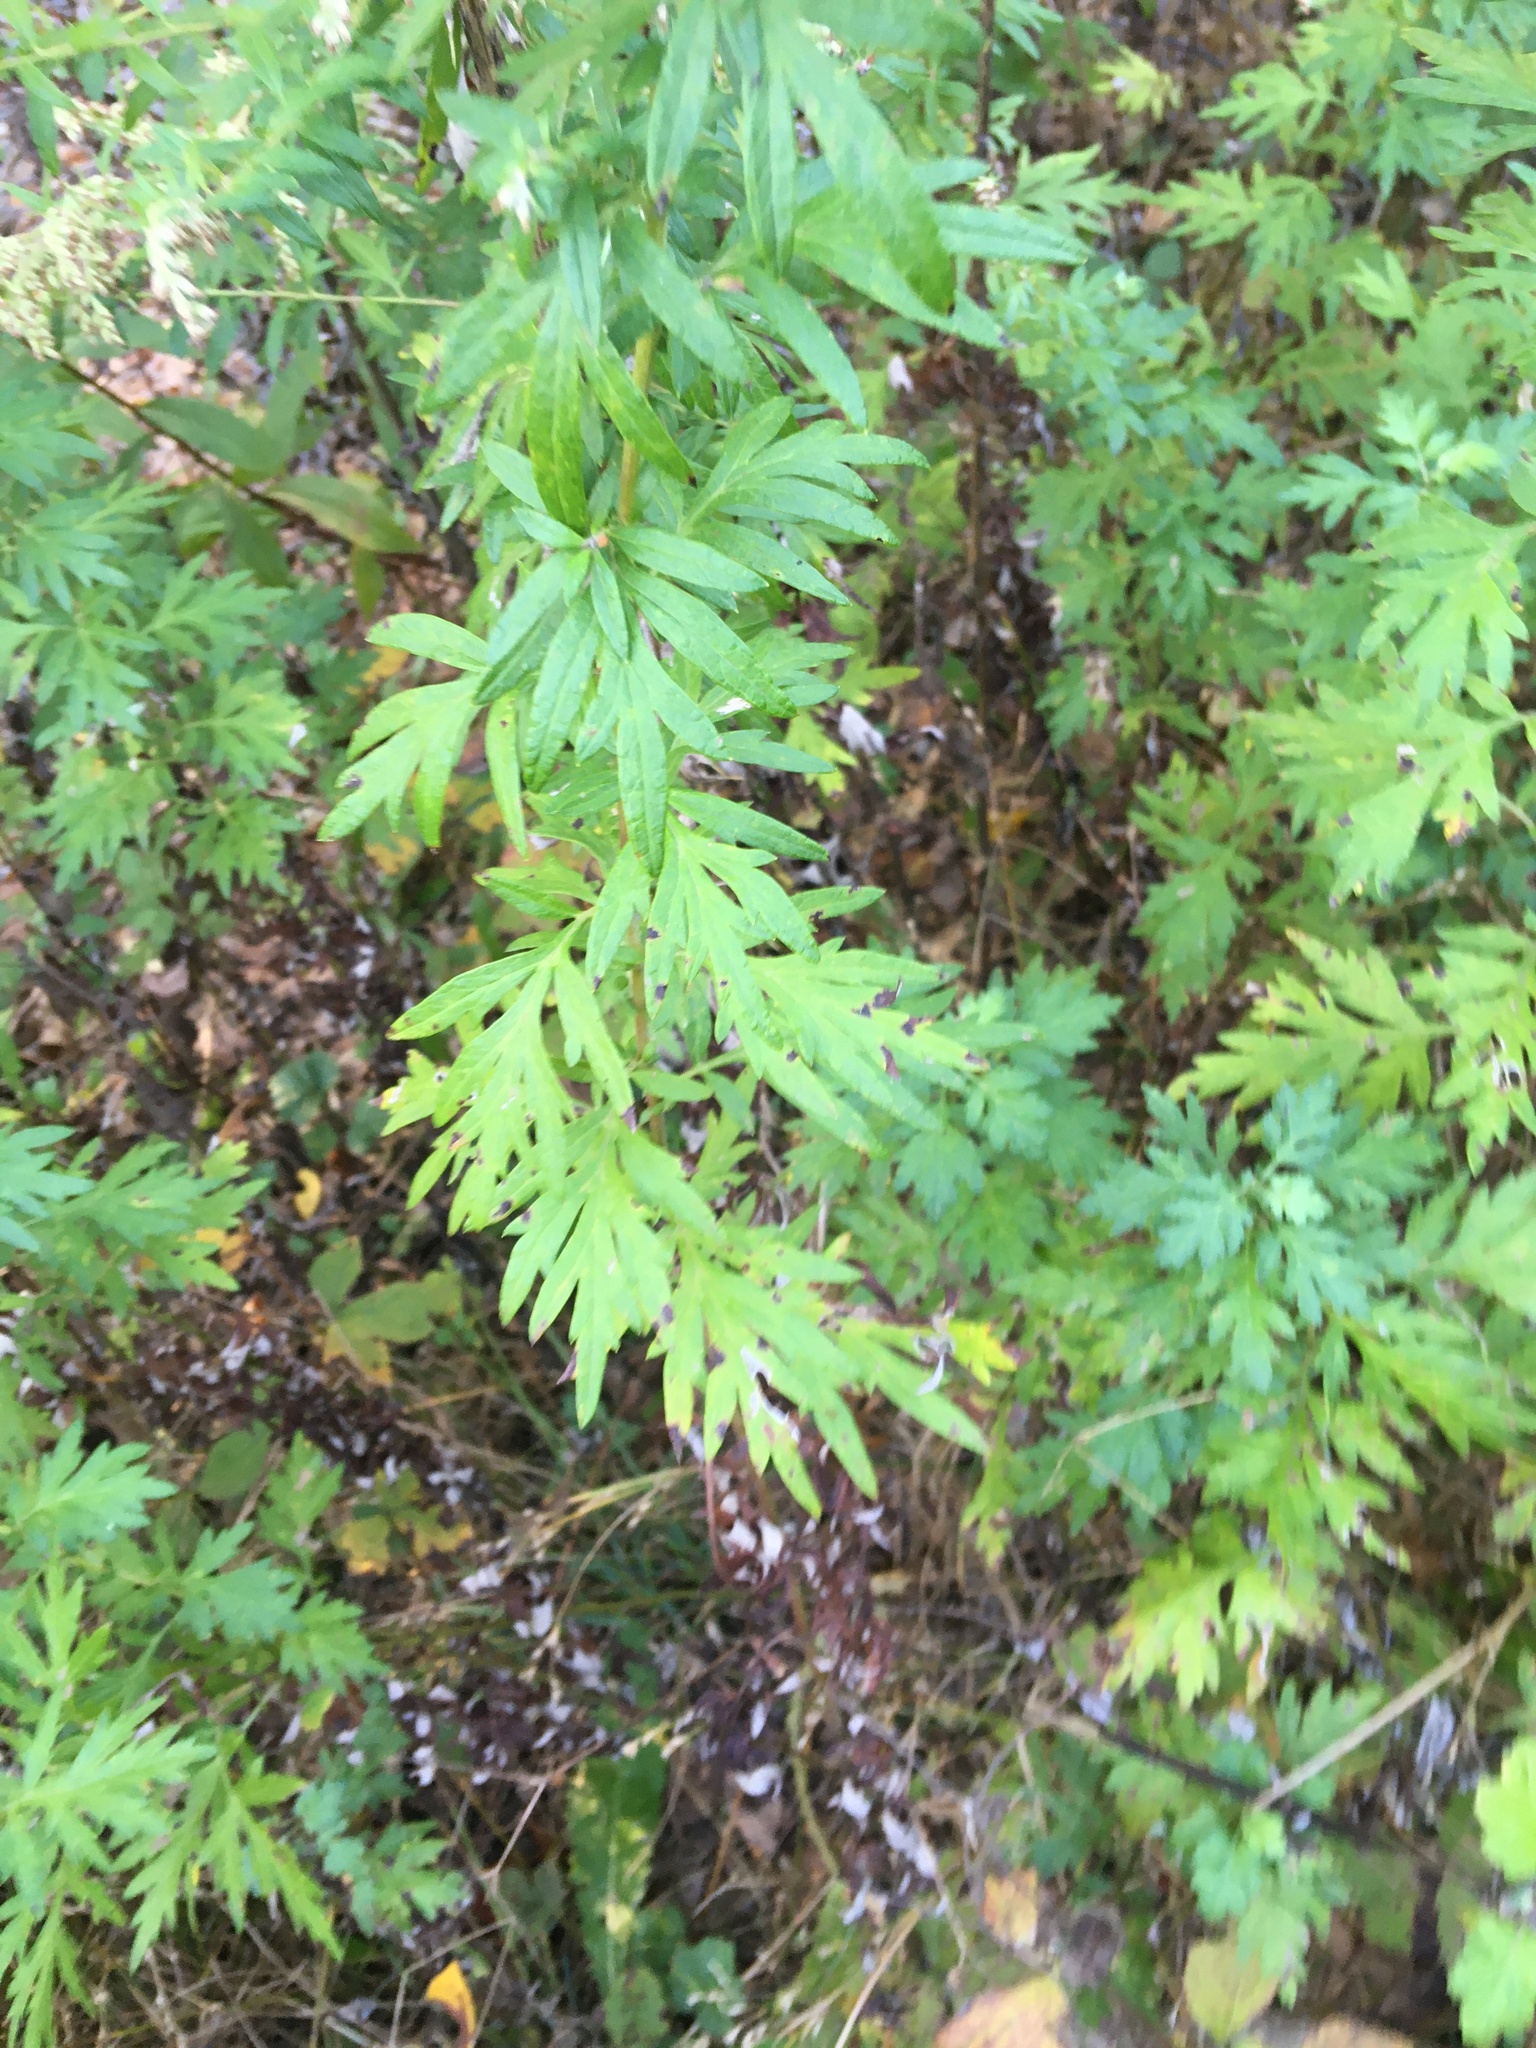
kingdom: Plantae
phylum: Tracheophyta
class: Magnoliopsida
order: Asterales
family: Asteraceae
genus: Artemisia
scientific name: Artemisia vulgaris
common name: Mugwort
